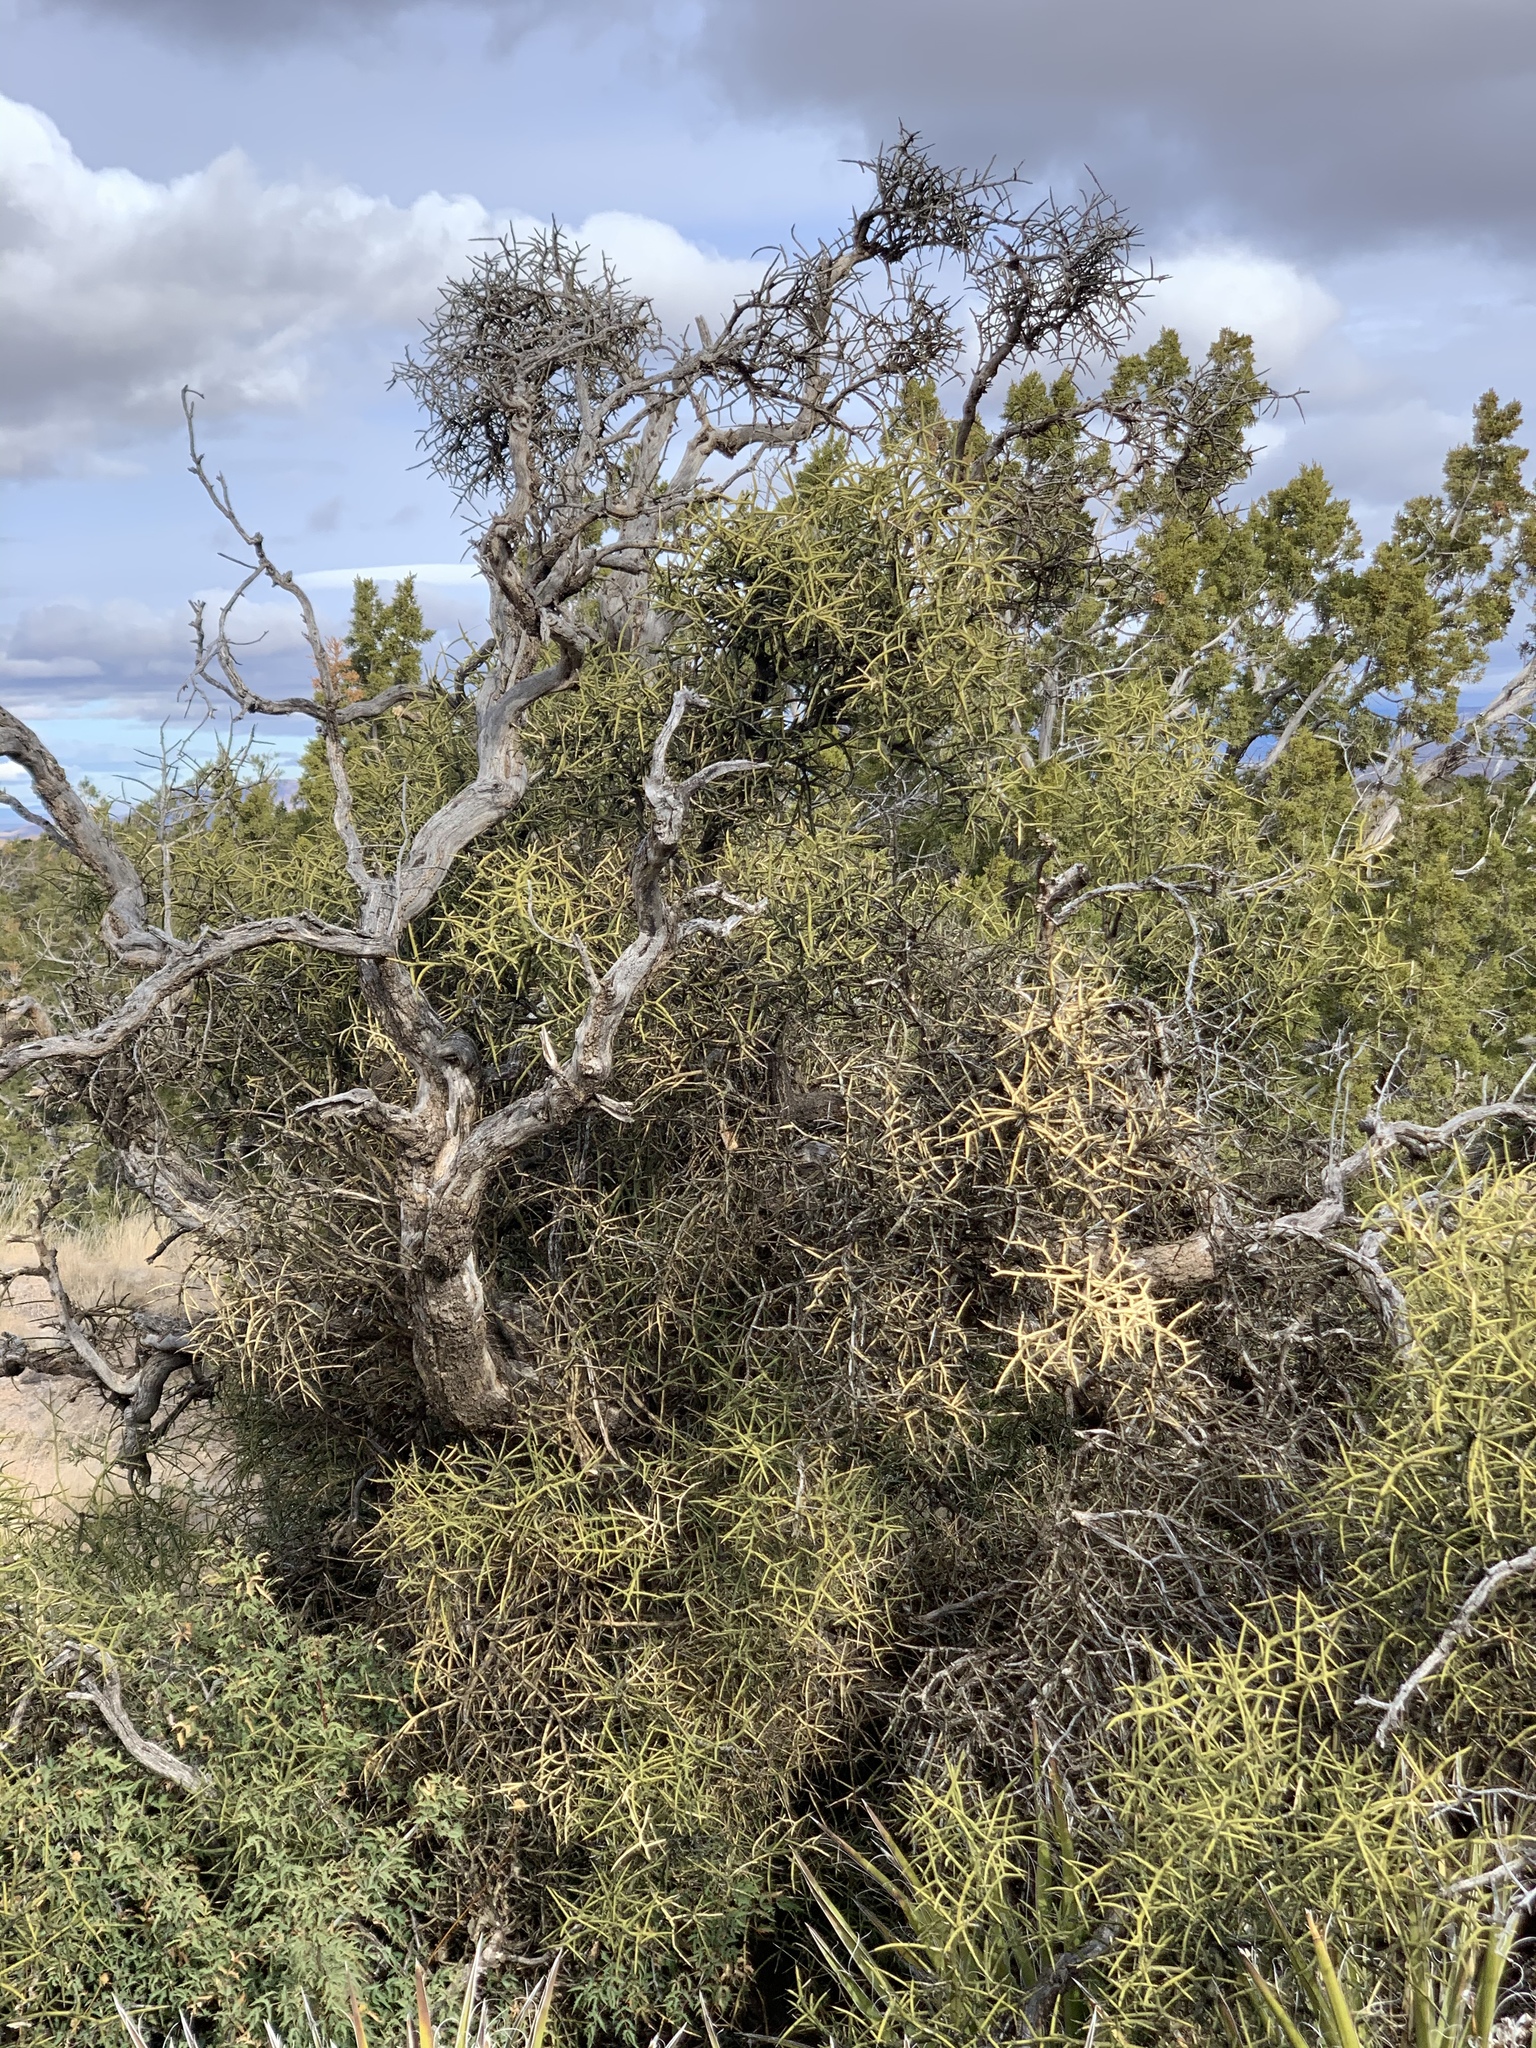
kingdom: Plantae
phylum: Tracheophyta
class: Magnoliopsida
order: Brassicales
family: Koeberliniaceae
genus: Koeberlinia
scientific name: Koeberlinia spinosa
